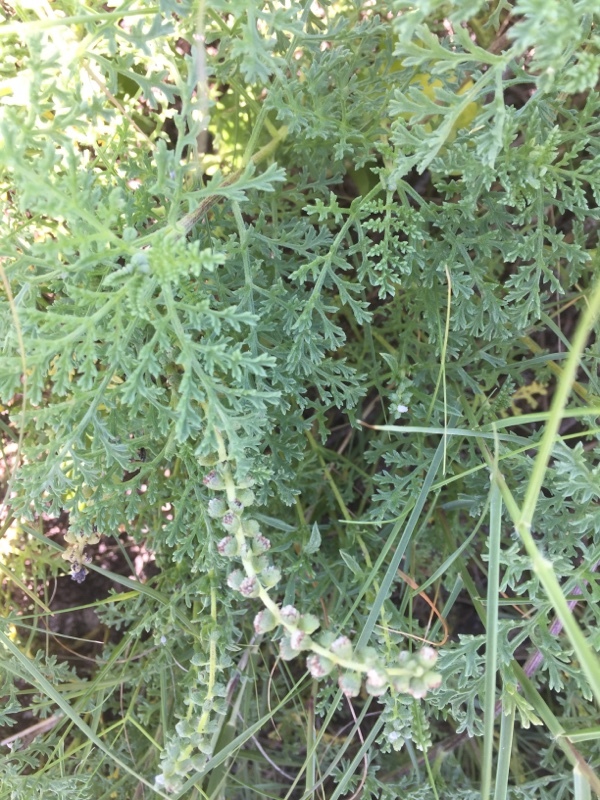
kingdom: Plantae
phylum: Tracheophyta
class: Magnoliopsida
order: Asterales
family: Asteraceae
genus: Ambrosia
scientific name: Ambrosia hispida
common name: Coastal ragweed
